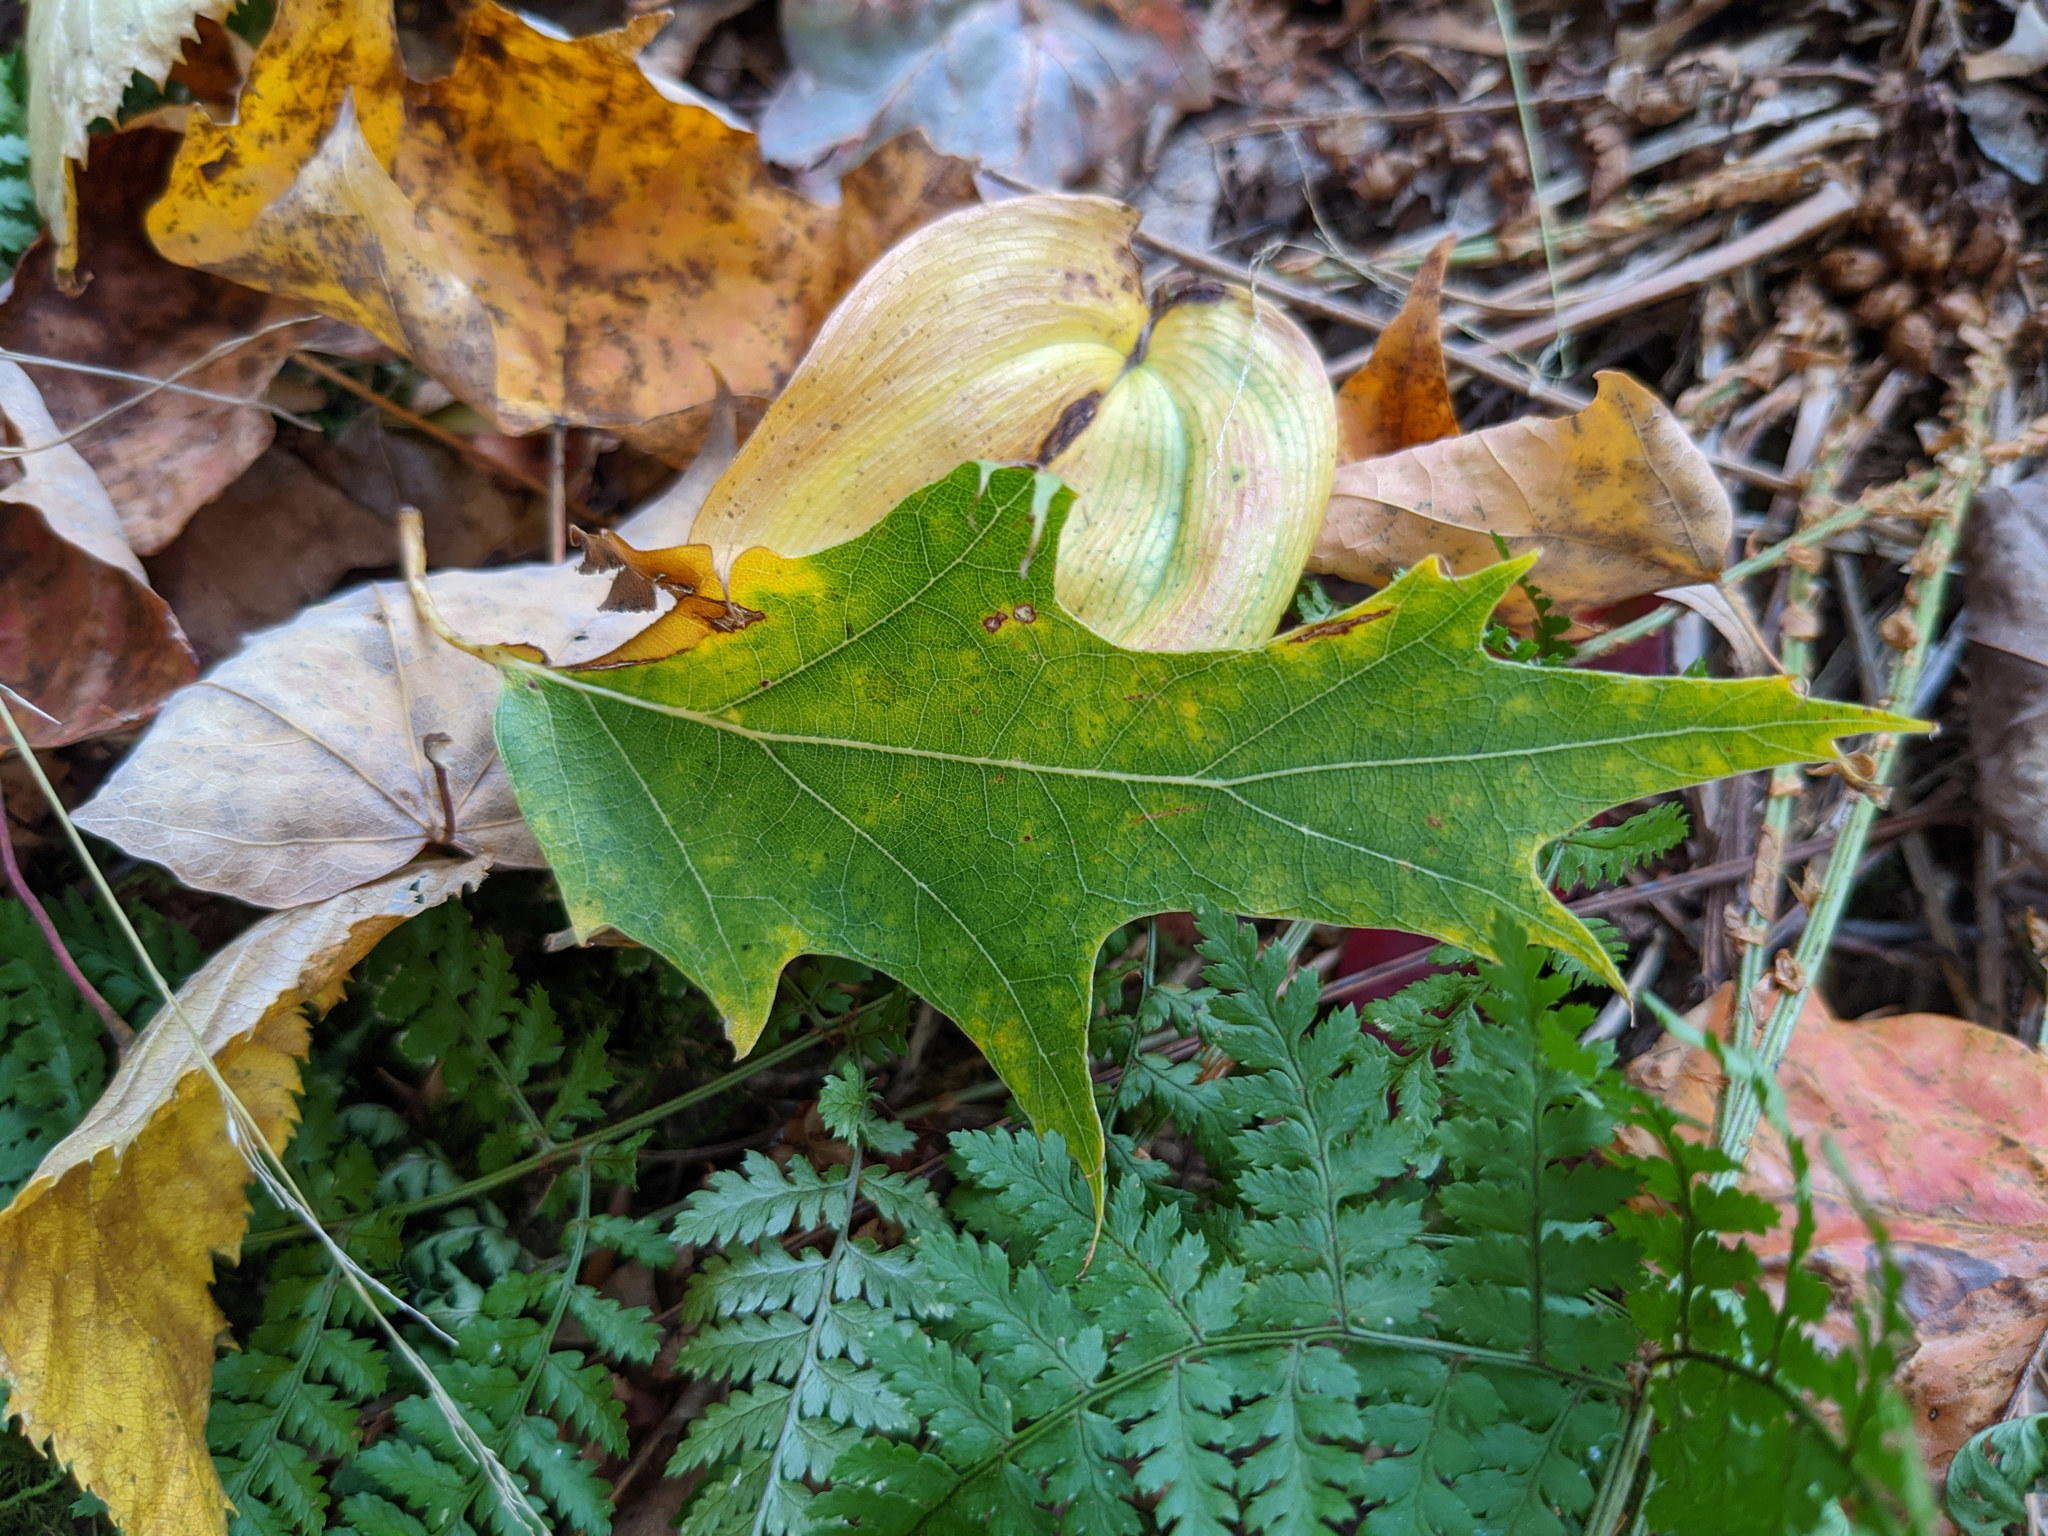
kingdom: Plantae
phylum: Tracheophyta
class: Magnoliopsida
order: Fagales
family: Fagaceae
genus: Quercus
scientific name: Quercus rubra
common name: Red oak
